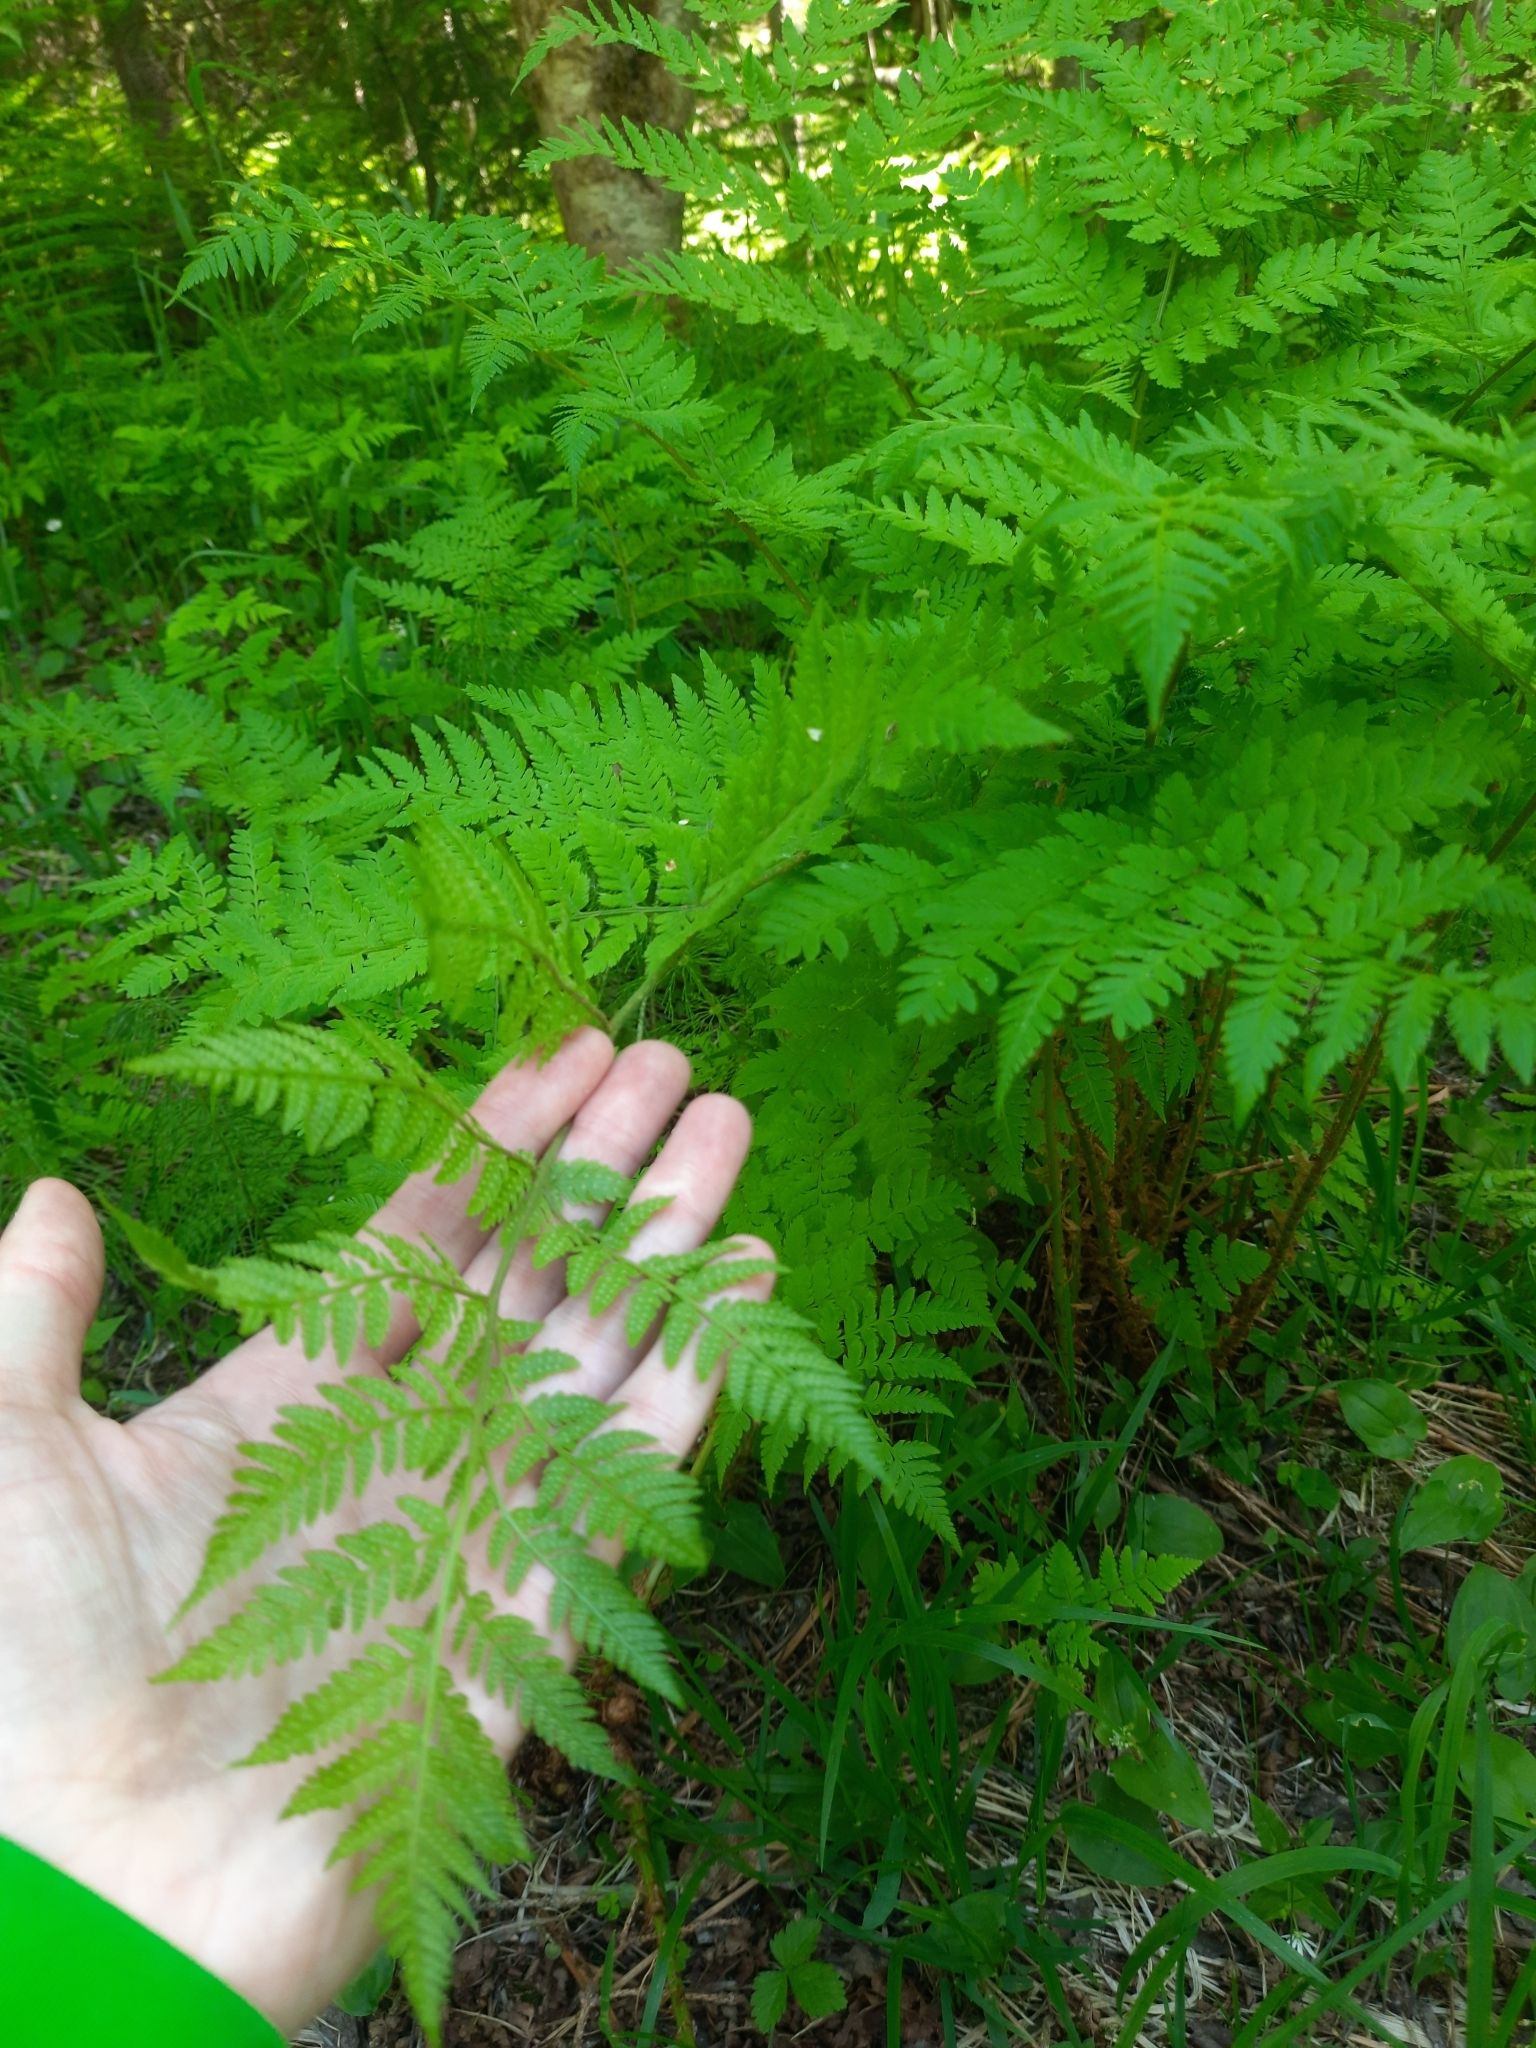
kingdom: Plantae
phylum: Tracheophyta
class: Polypodiopsida
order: Polypodiales
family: Dryopteridaceae
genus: Dryopteris
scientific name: Dryopteris carthusiana
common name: Narrow buckler-fern
